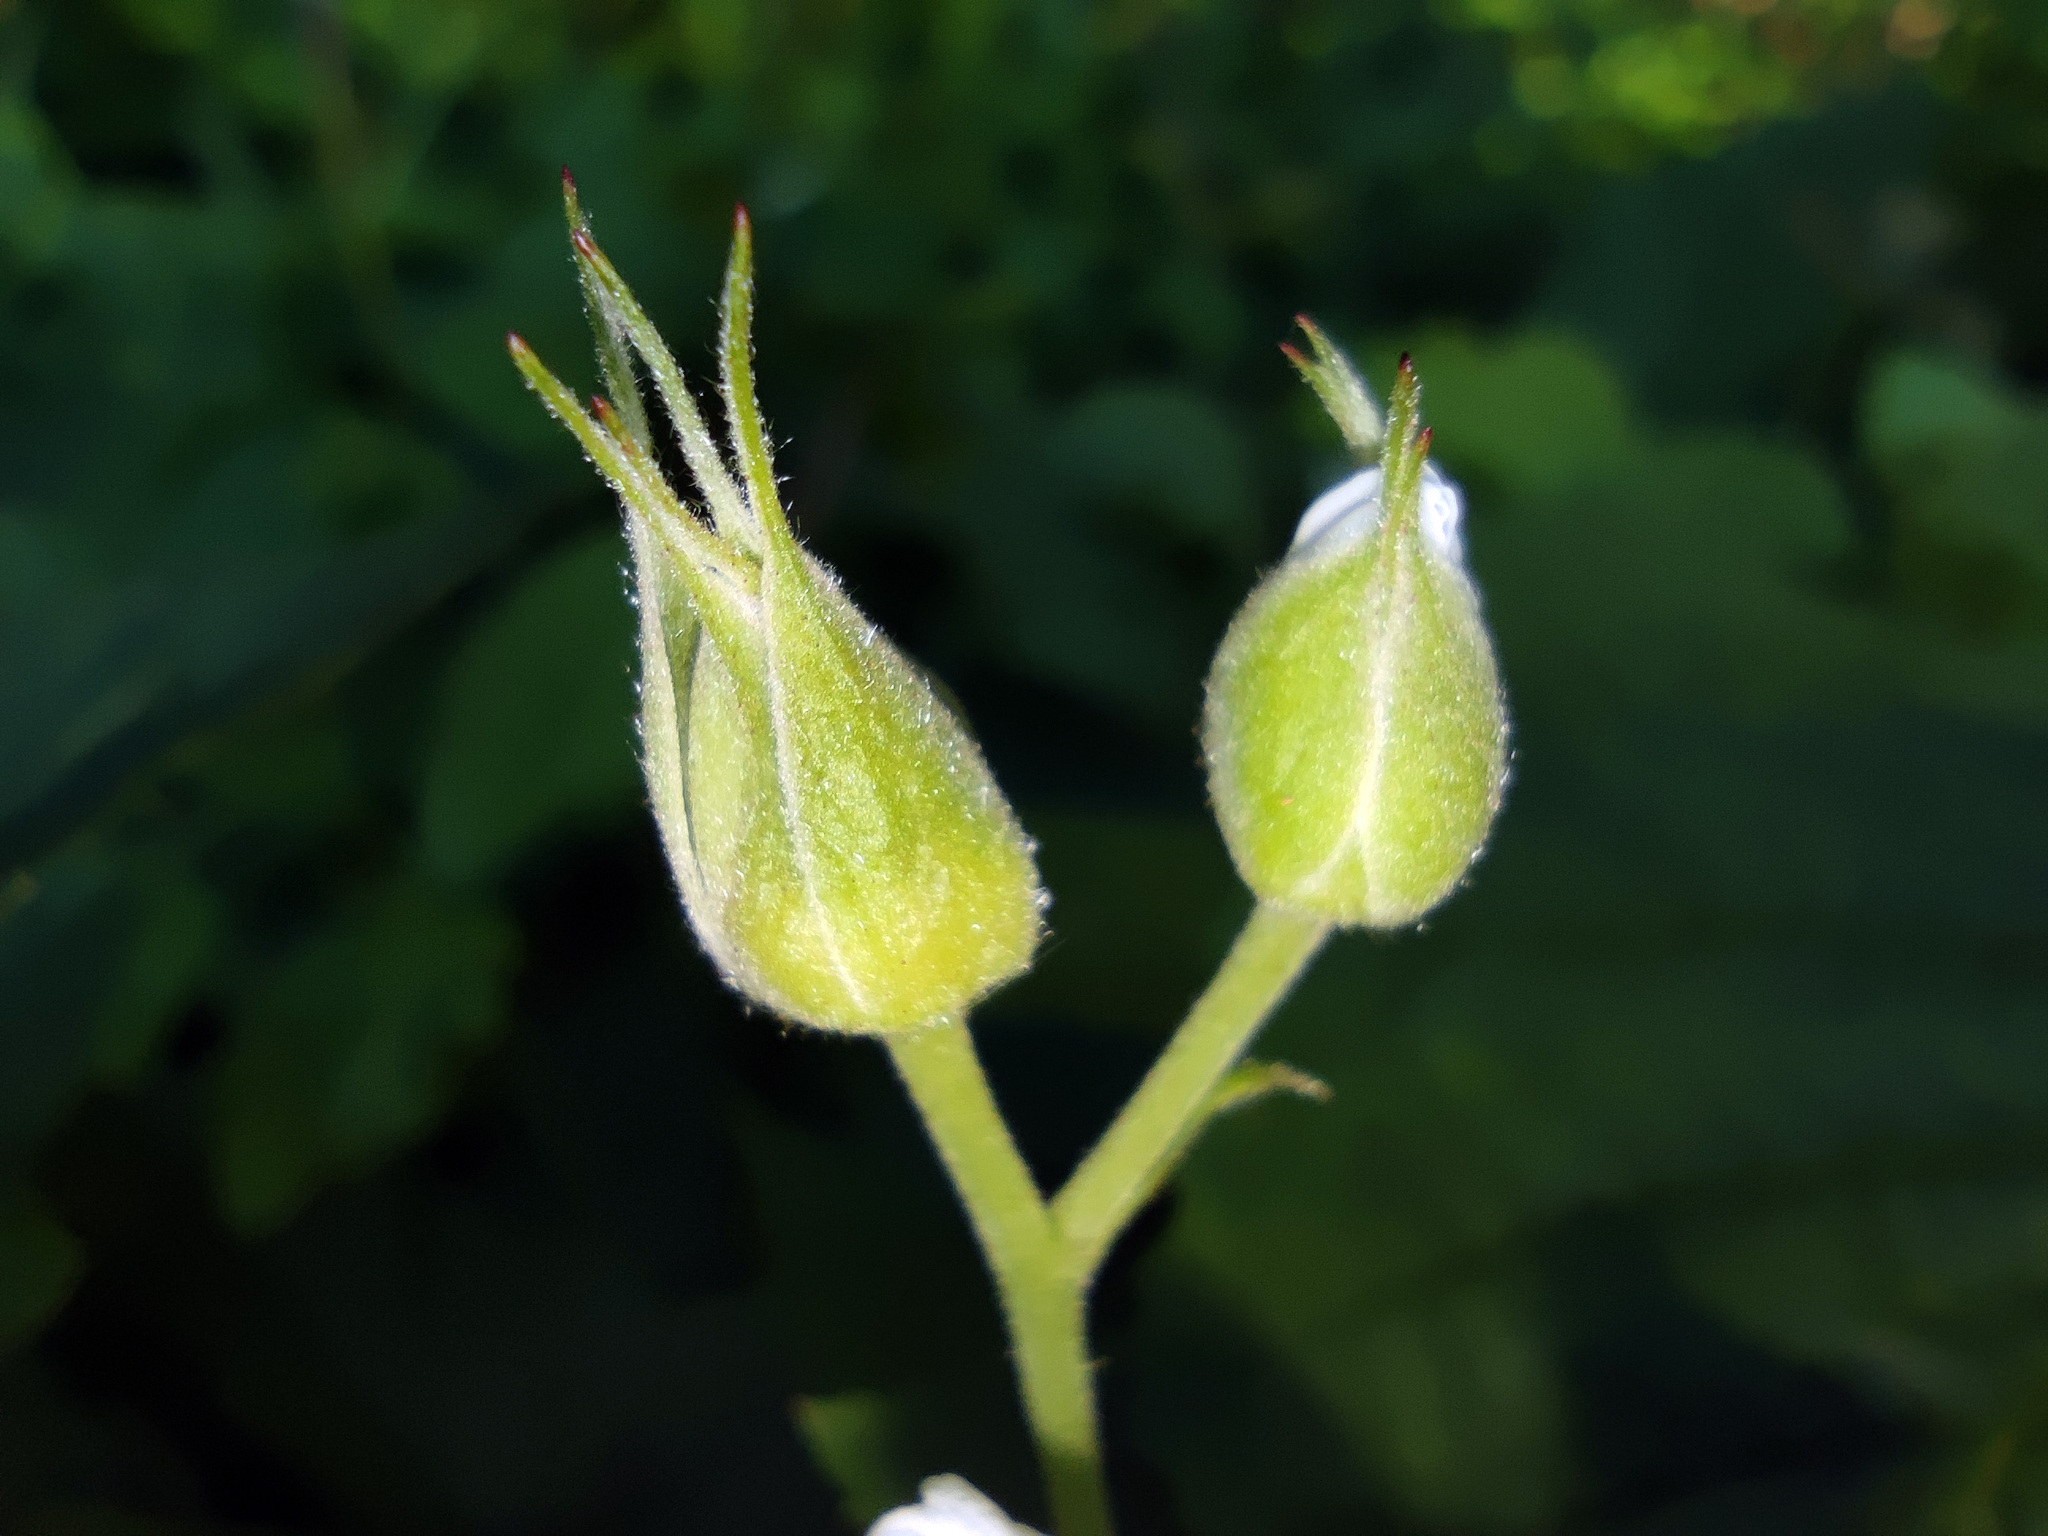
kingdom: Plantae
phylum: Tracheophyta
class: Magnoliopsida
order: Rosales
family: Rosaceae
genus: Rubus
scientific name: Rubus caesius
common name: Dewberry
